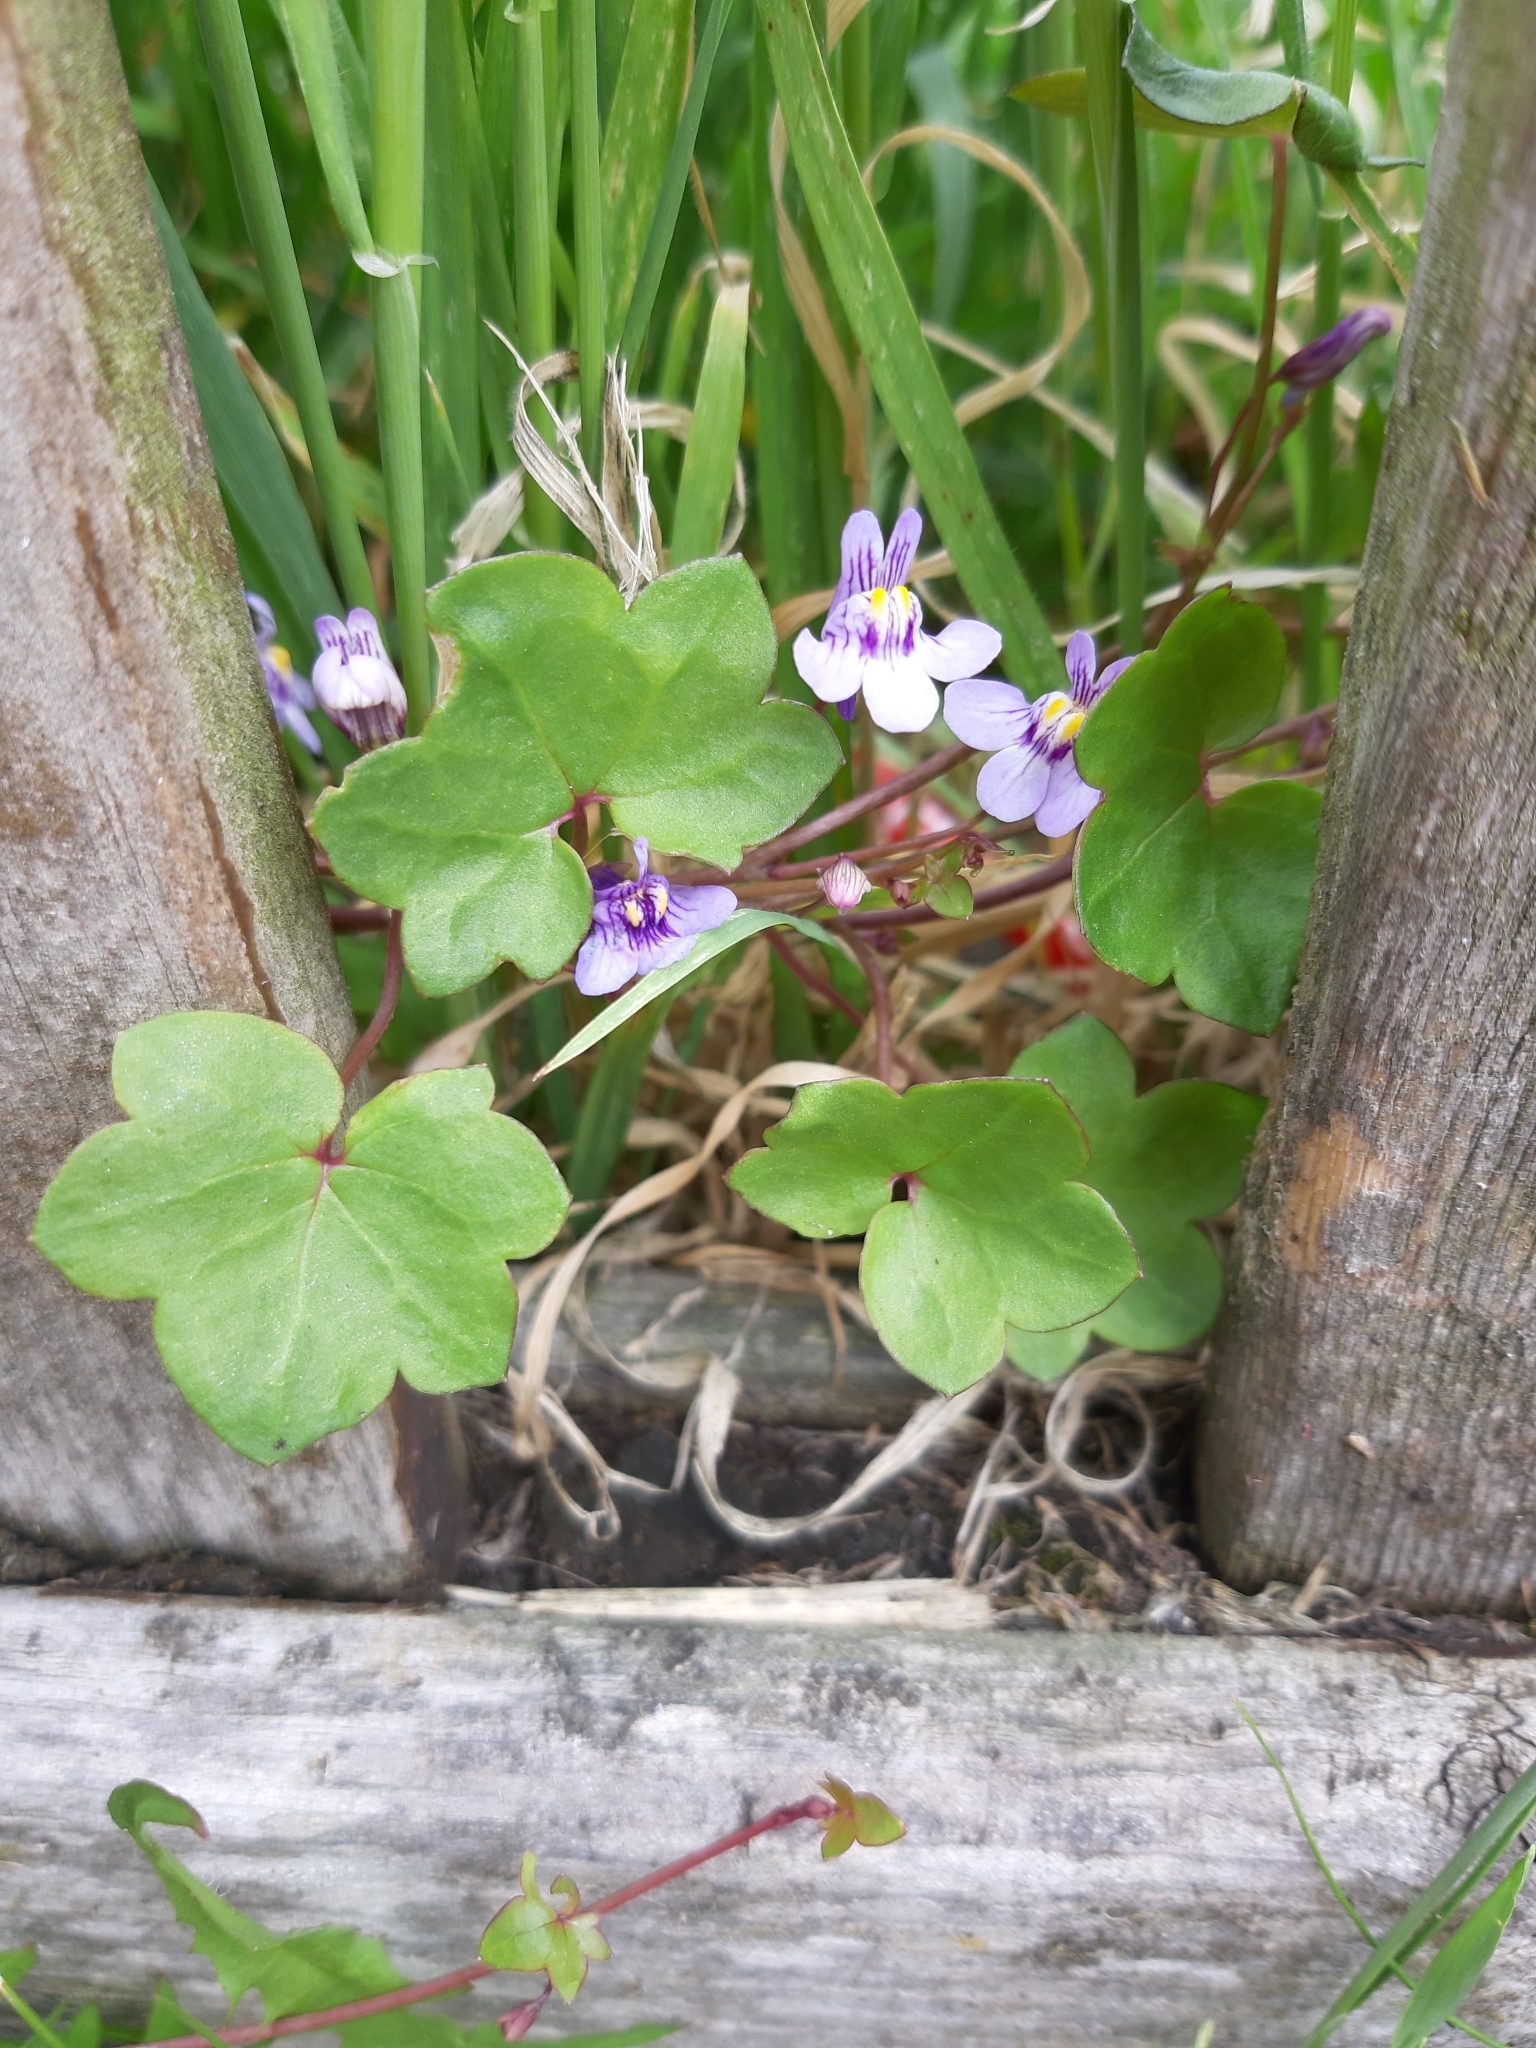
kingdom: Plantae
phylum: Tracheophyta
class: Magnoliopsida
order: Lamiales
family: Plantaginaceae
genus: Cymbalaria
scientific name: Cymbalaria muralis
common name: Ivy-leaved toadflax
